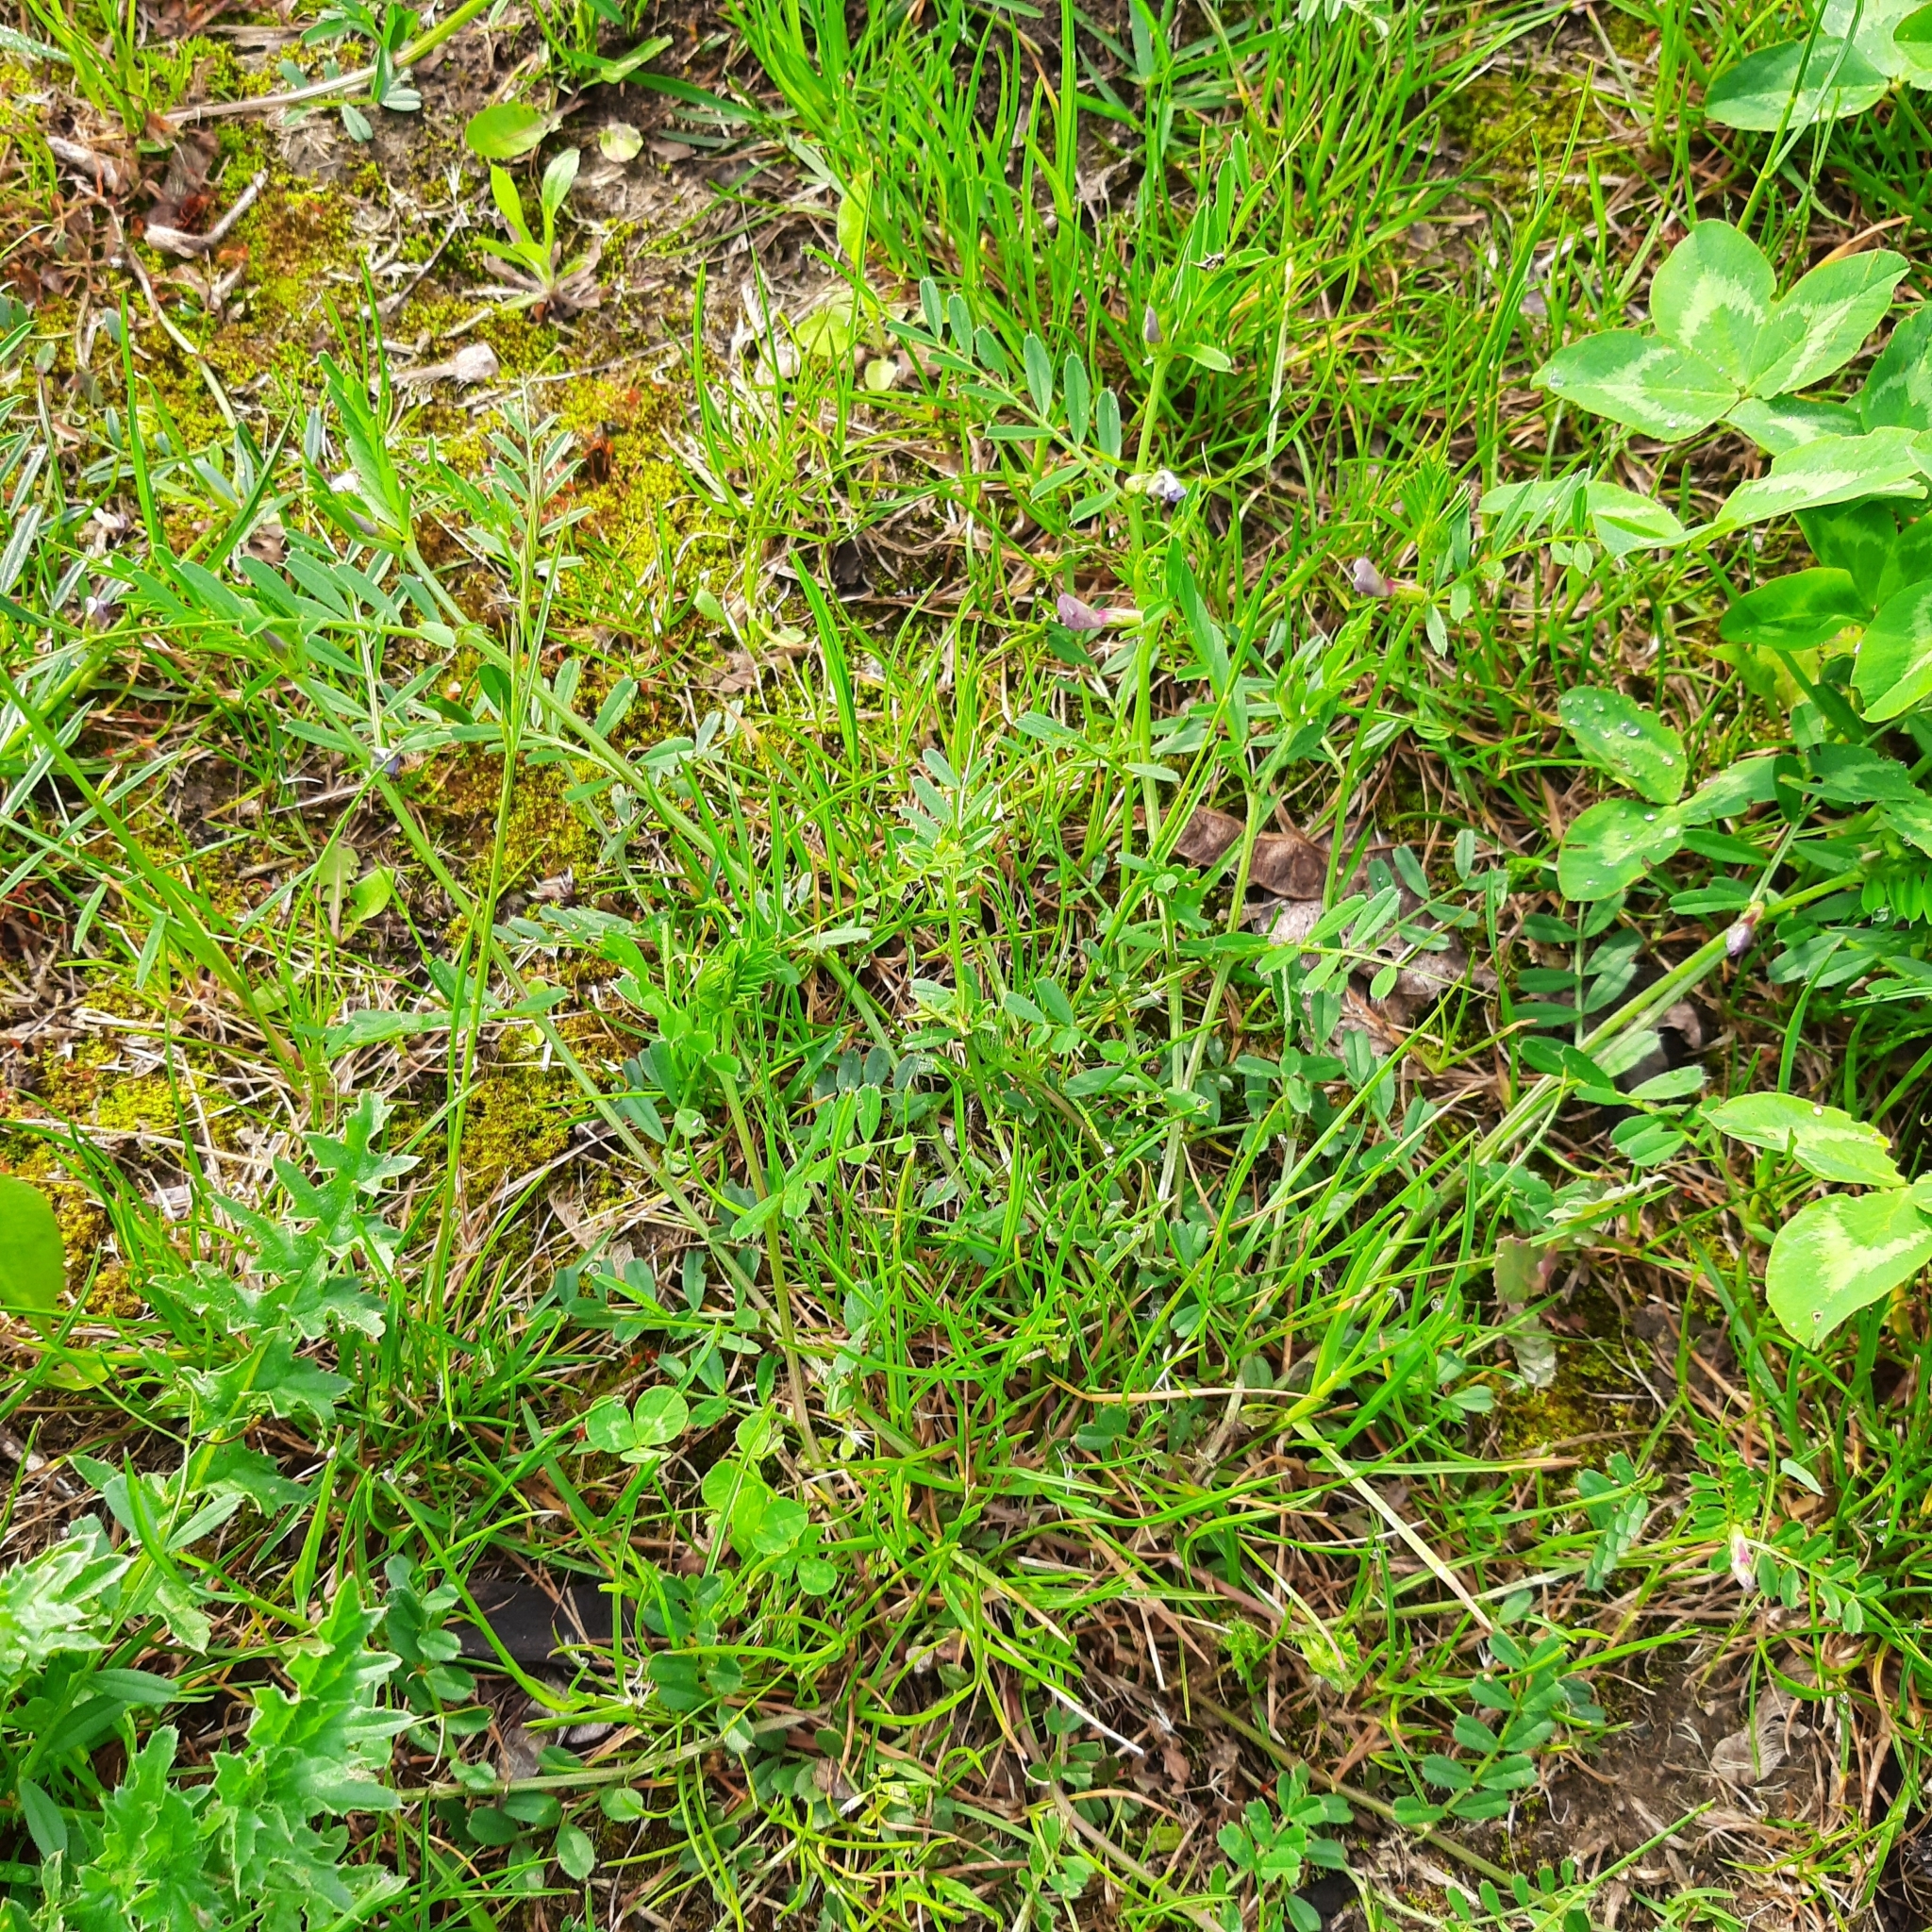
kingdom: Plantae
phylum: Tracheophyta
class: Magnoliopsida
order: Fabales
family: Fabaceae
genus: Vicia
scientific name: Vicia sativa
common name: Garden vetch
